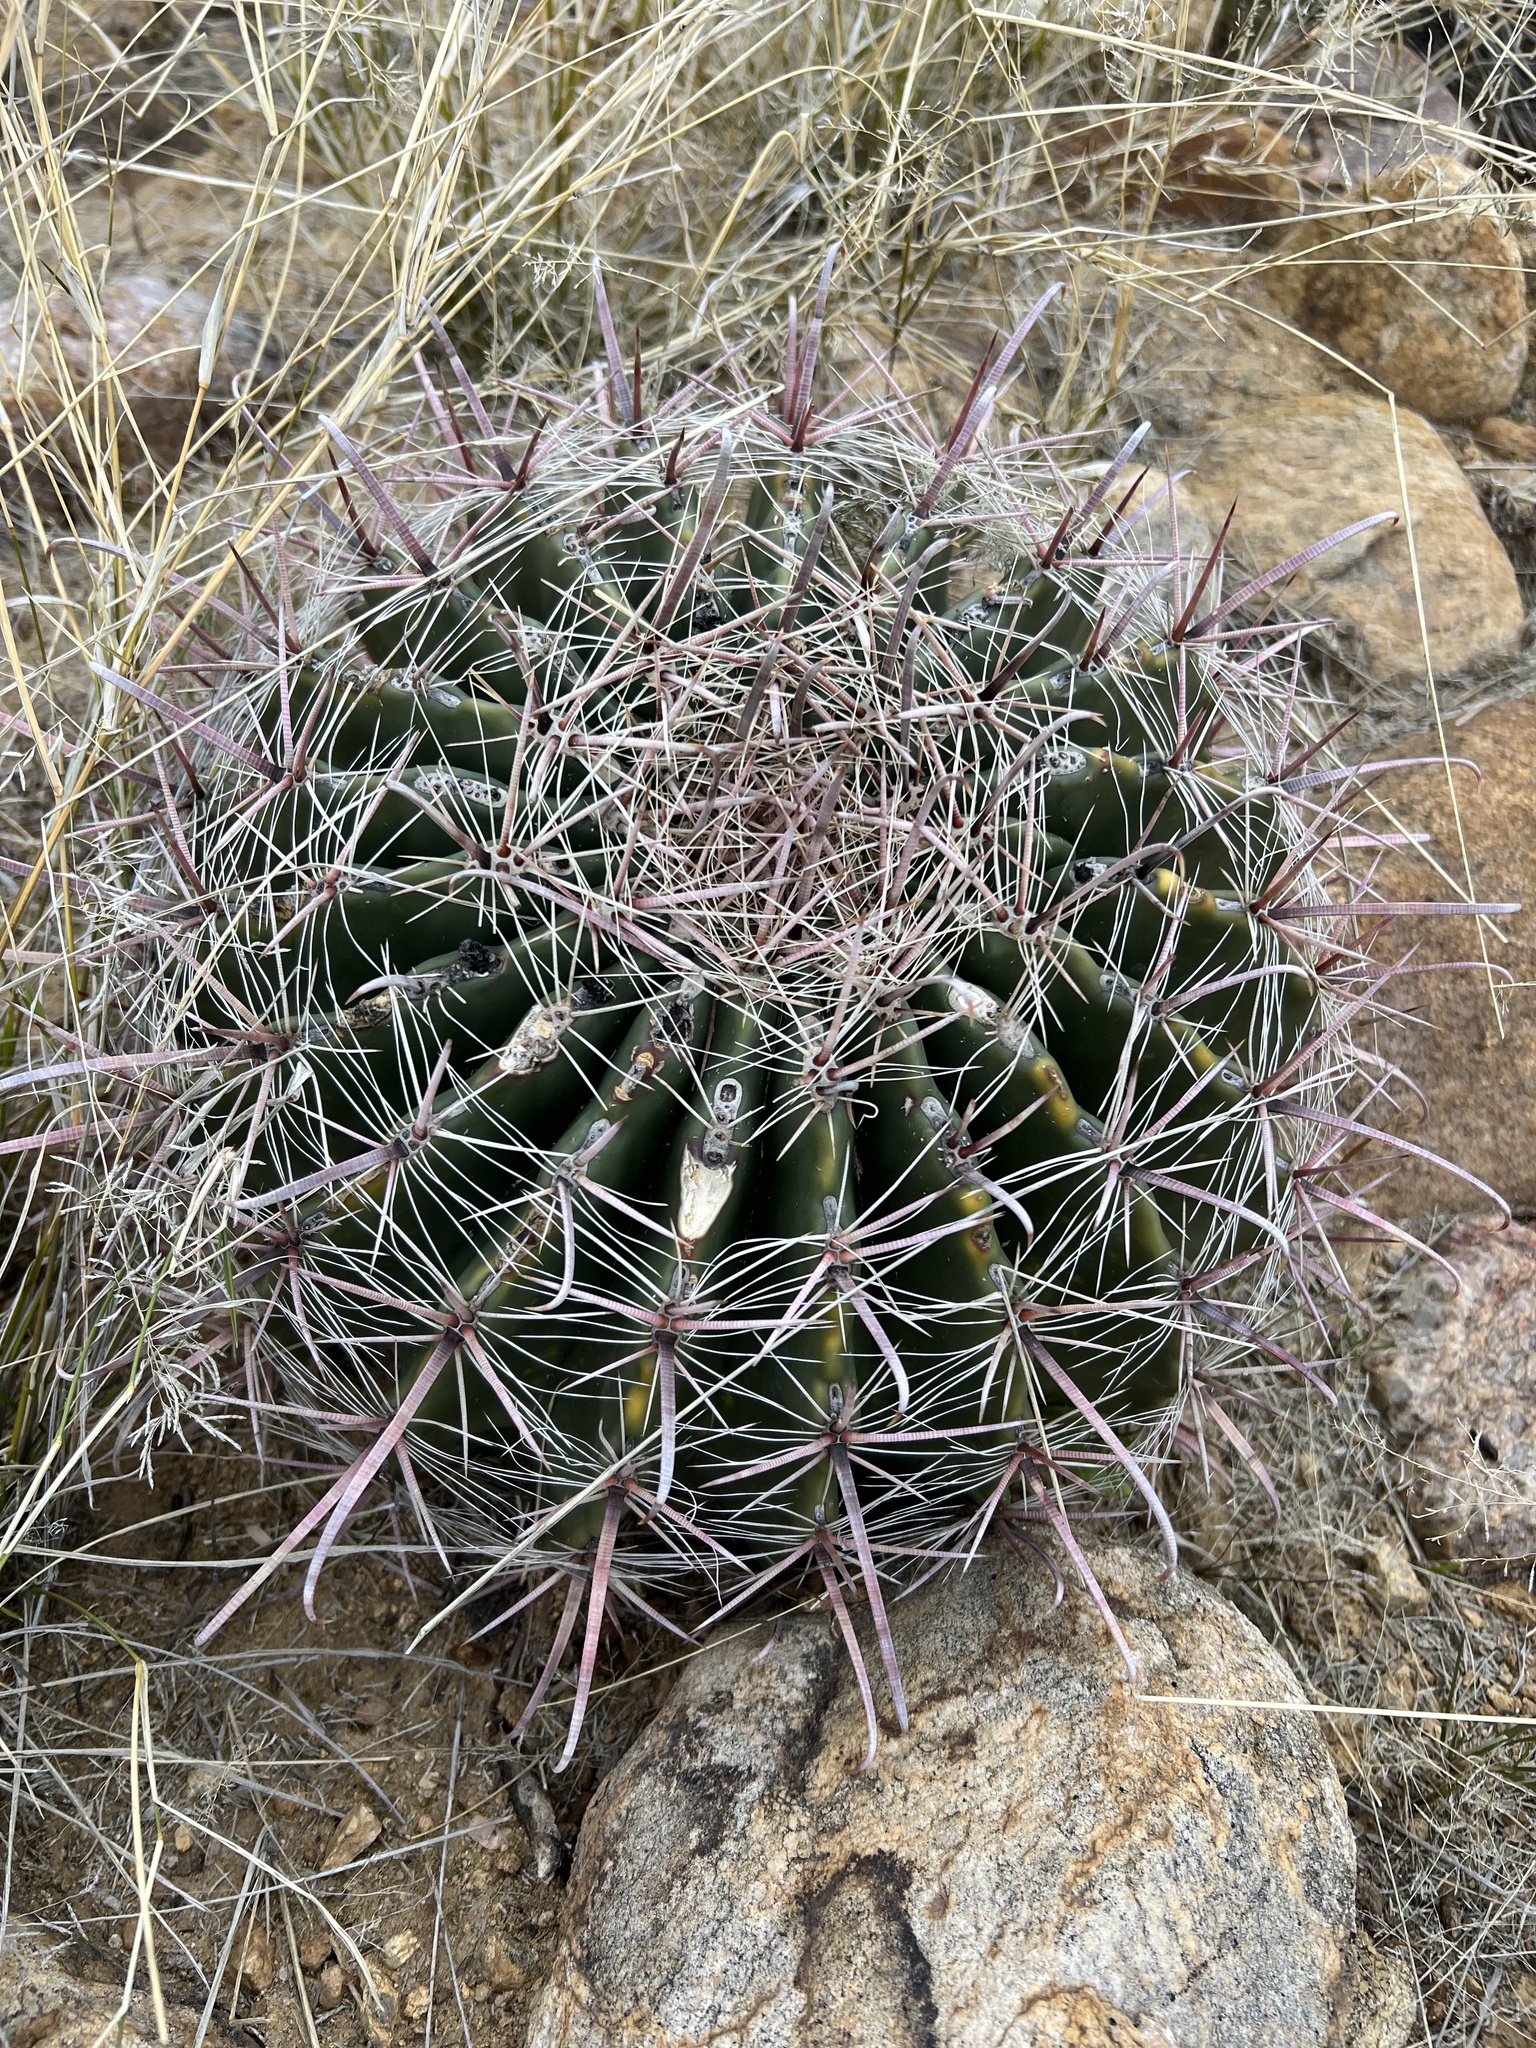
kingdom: Plantae
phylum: Tracheophyta
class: Magnoliopsida
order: Caryophyllales
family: Cactaceae
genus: Ferocactus
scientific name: Ferocactus wislizeni
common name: Candy barrel cactus
